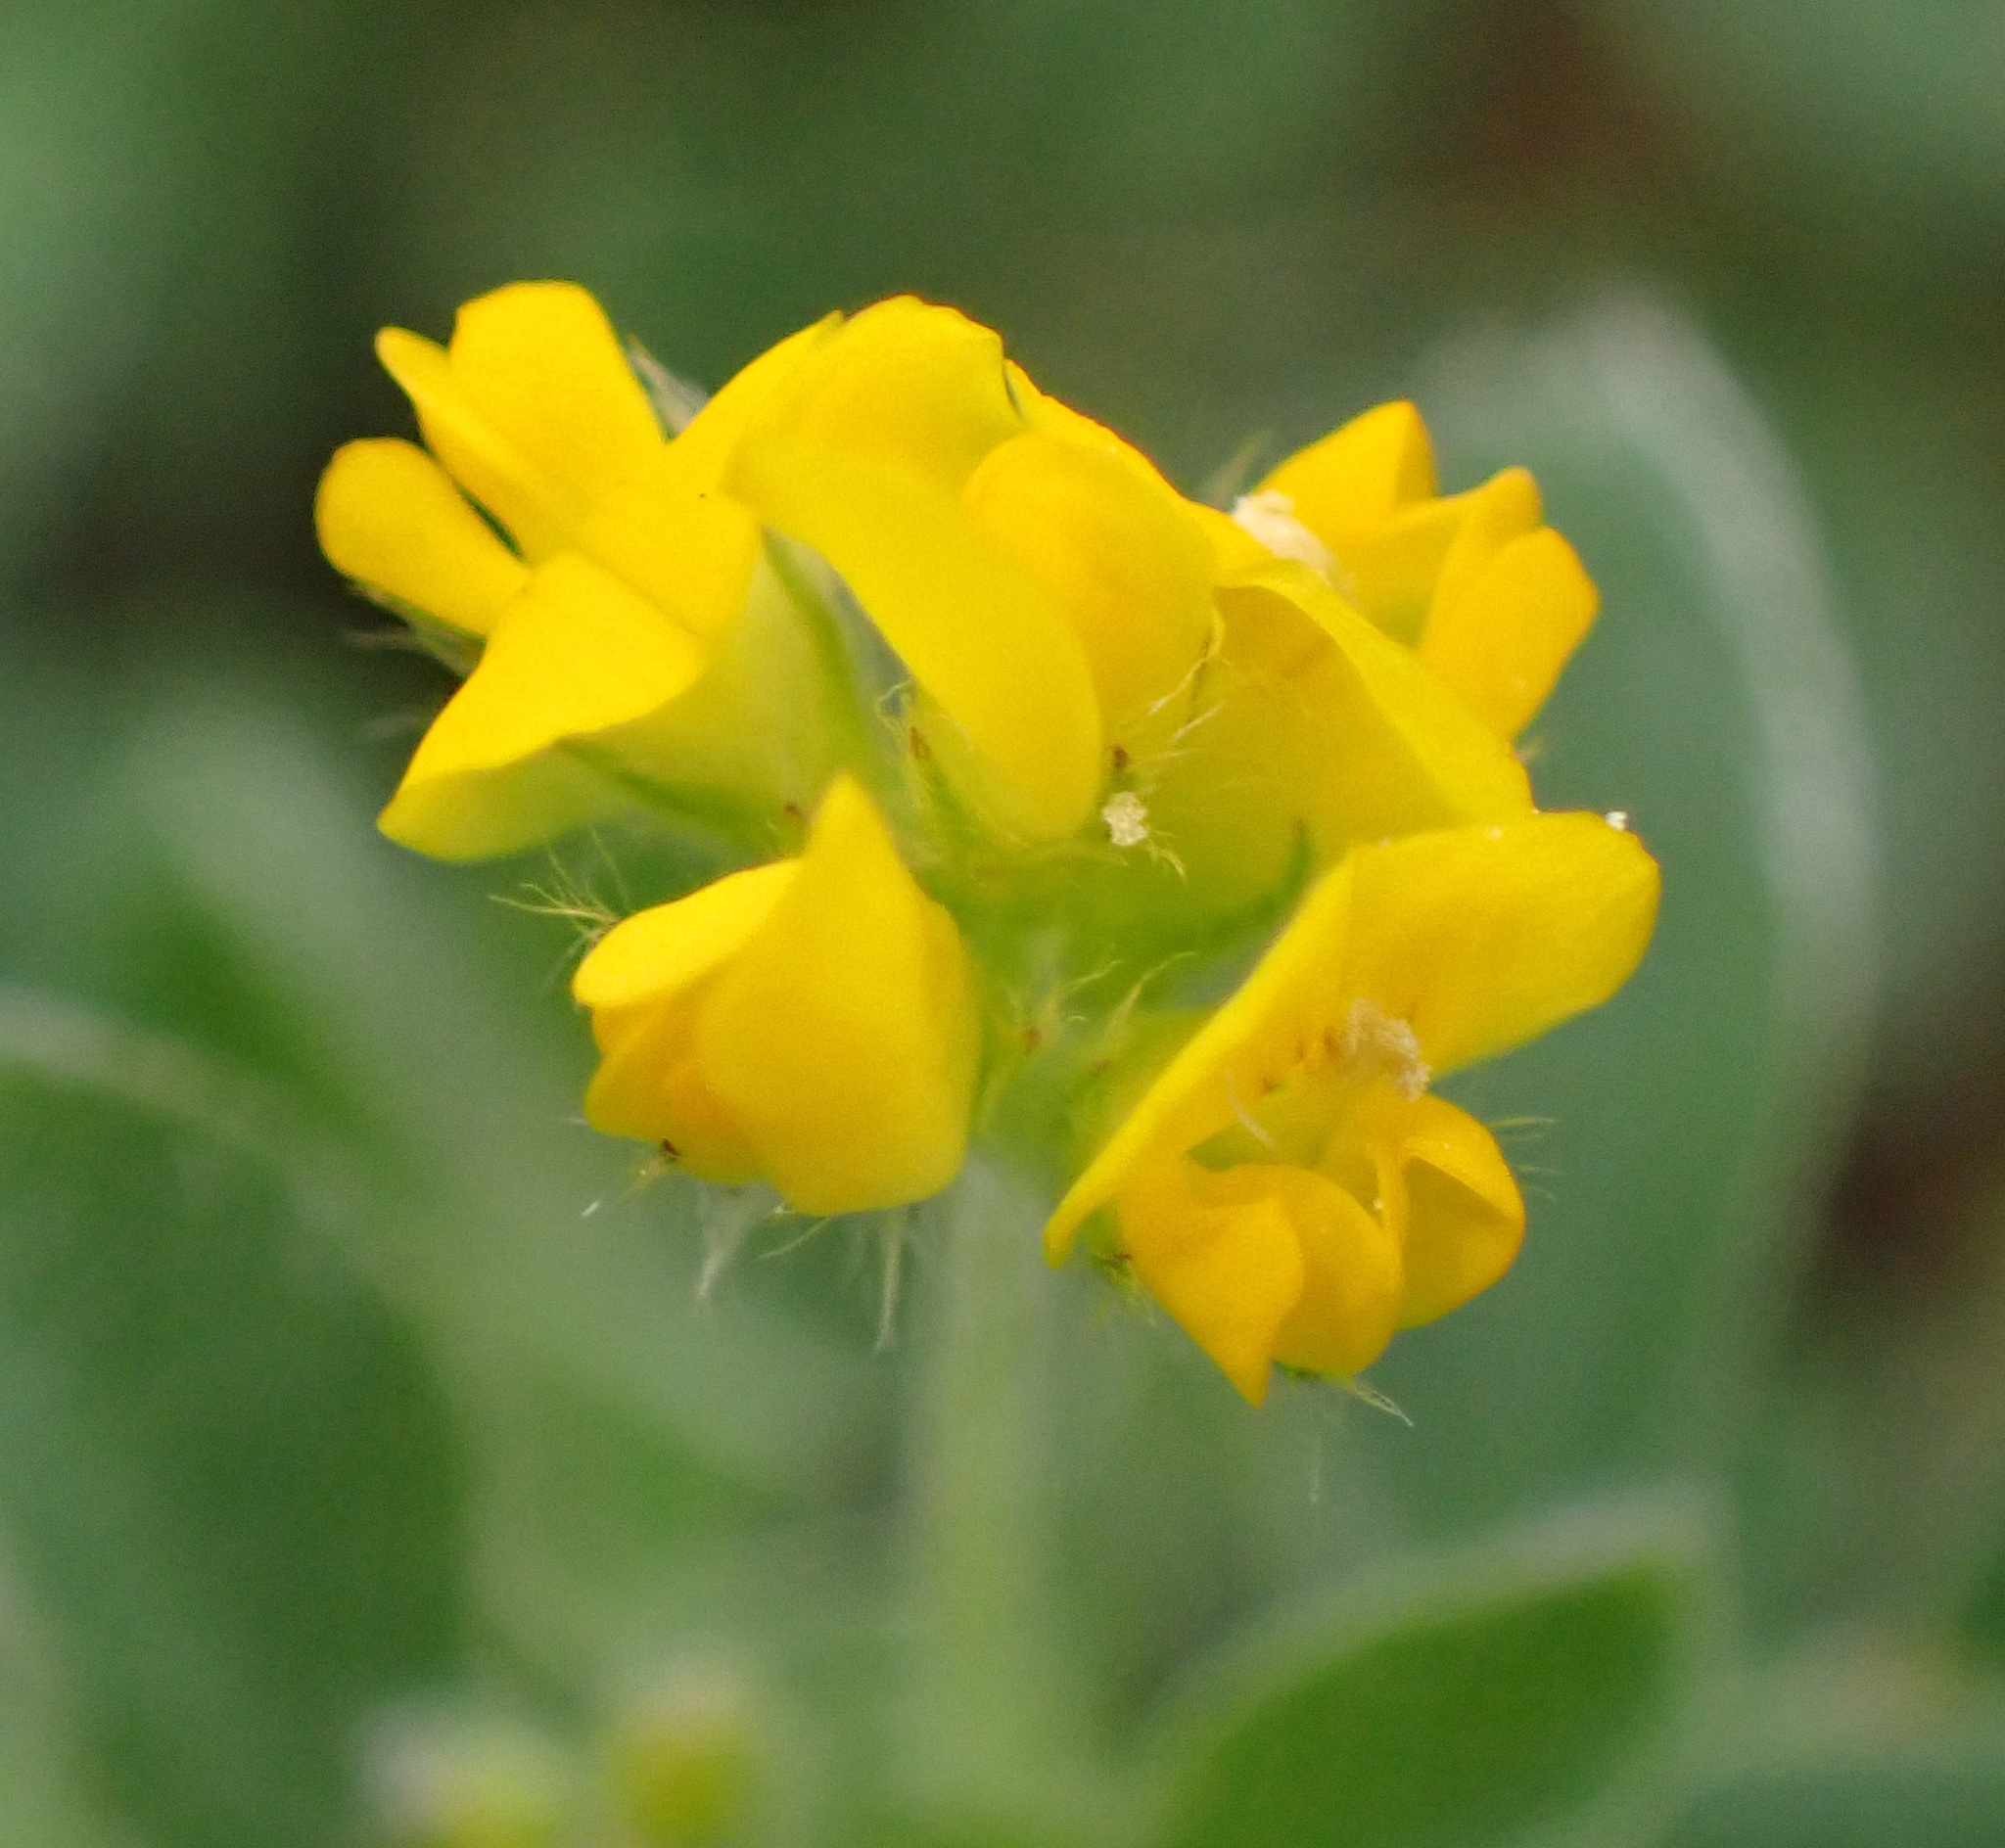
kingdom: Plantae
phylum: Tracheophyta
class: Magnoliopsida
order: Fabales
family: Fabaceae
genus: Medicago
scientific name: Medicago minima
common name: Little bur-clover
